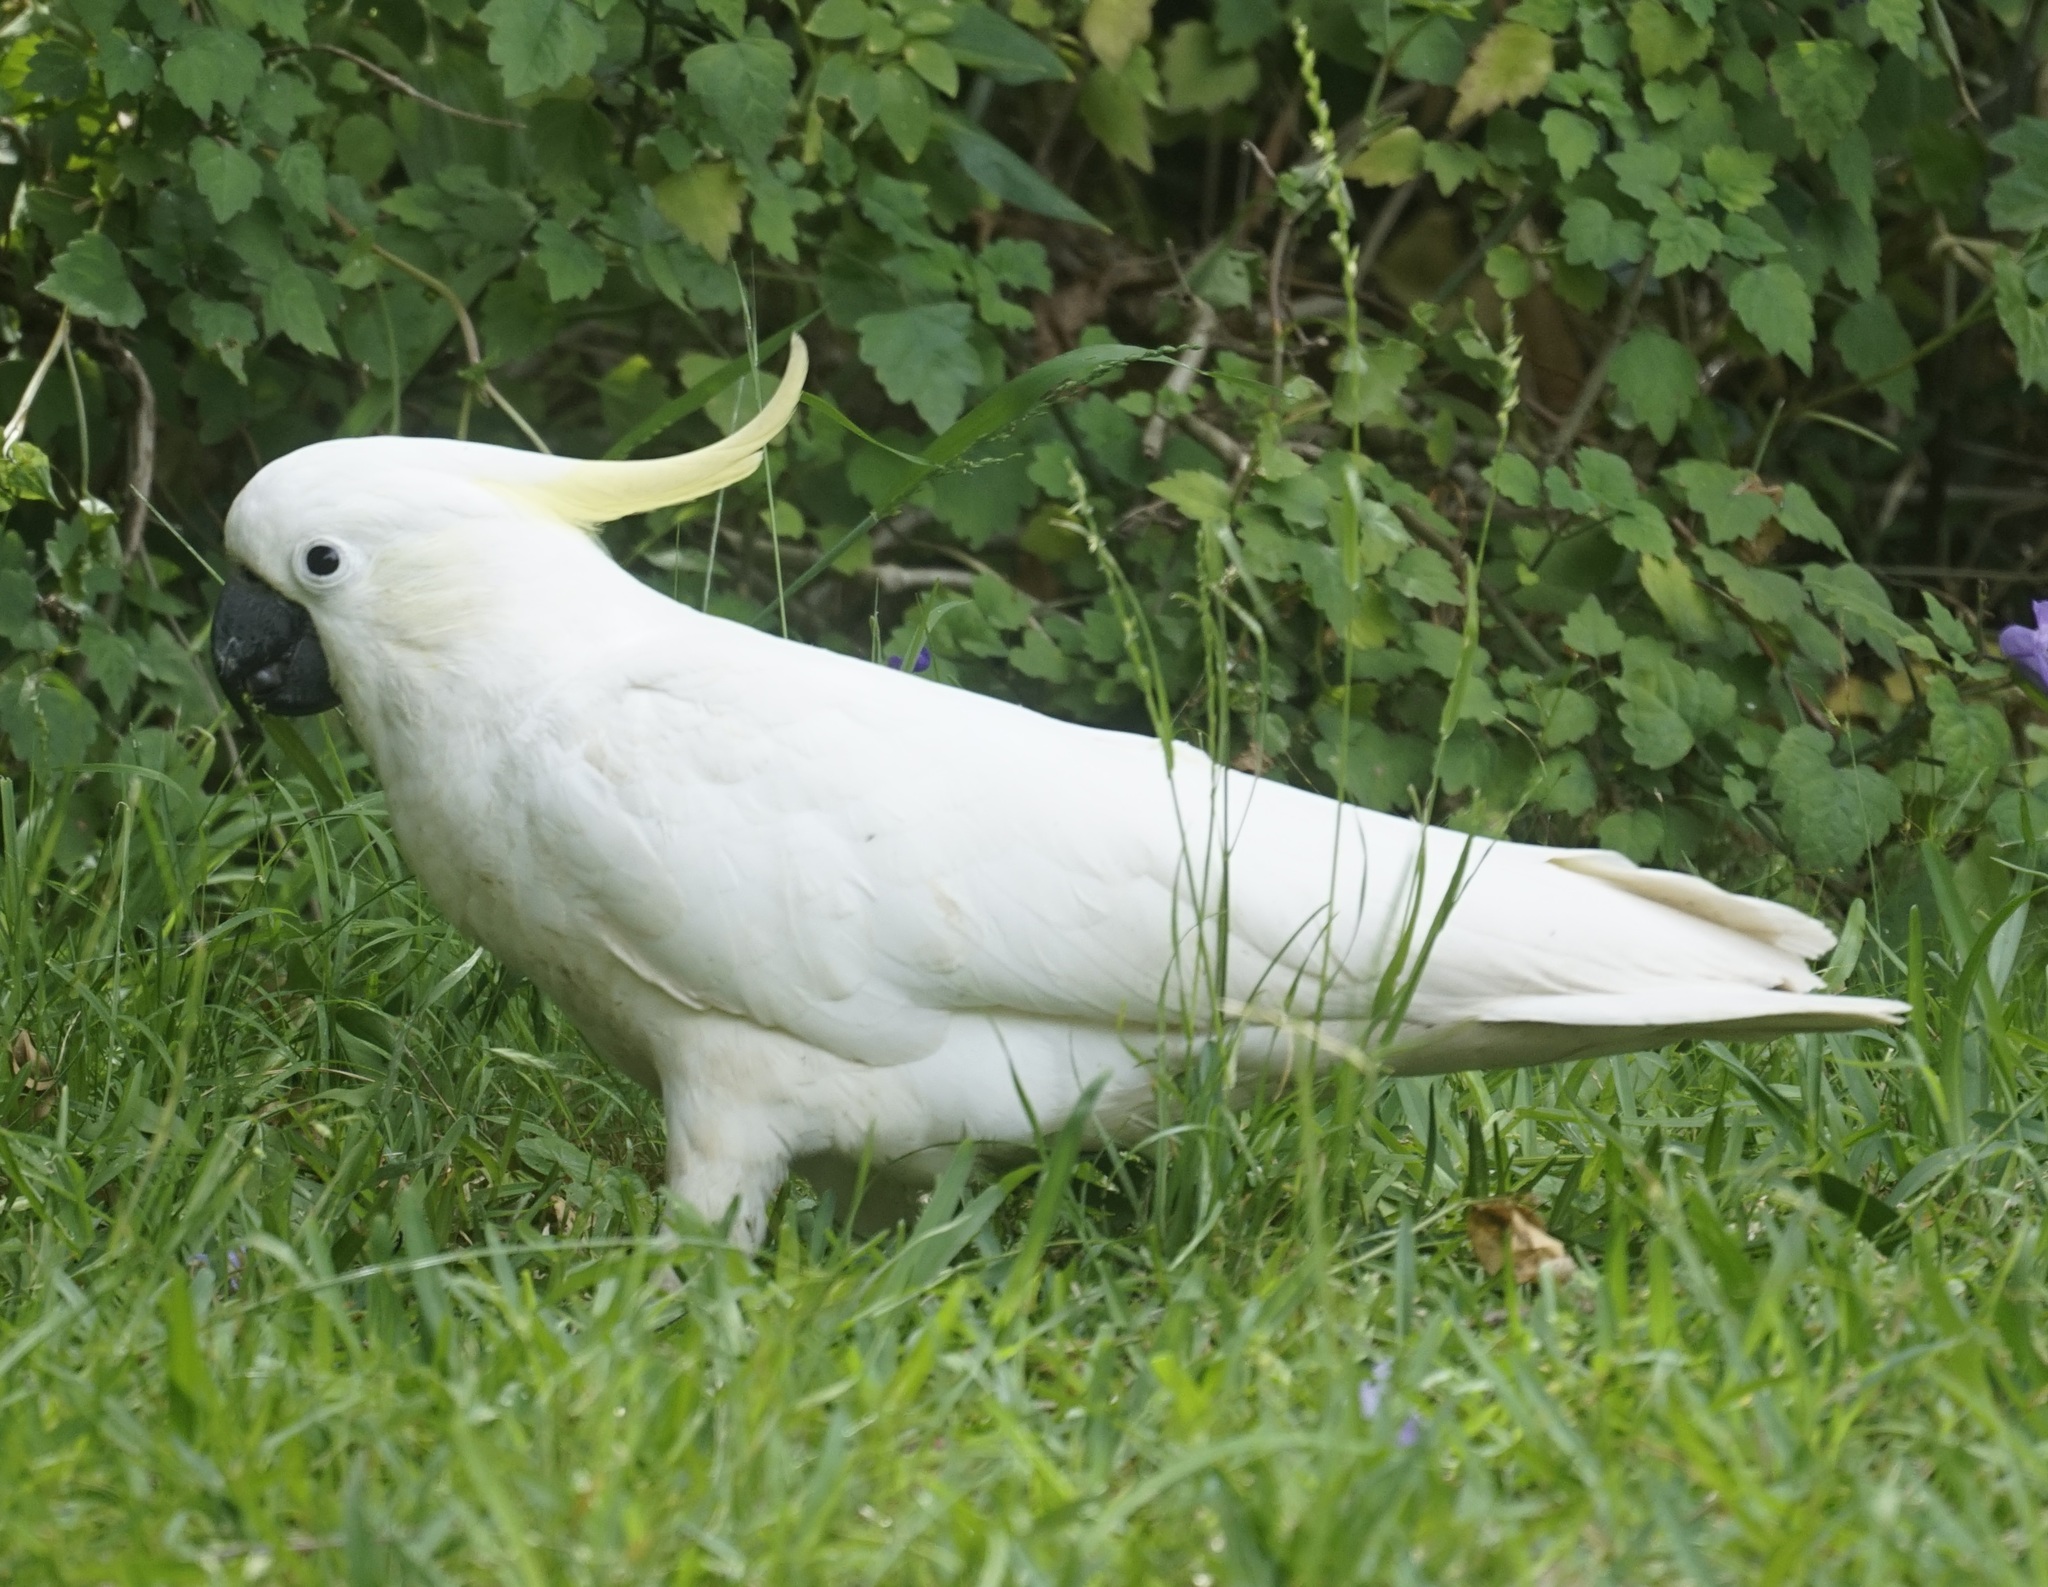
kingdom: Animalia
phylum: Chordata
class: Aves
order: Psittaciformes
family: Psittacidae
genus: Cacatua
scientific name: Cacatua galerita
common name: Sulphur-crested cockatoo
